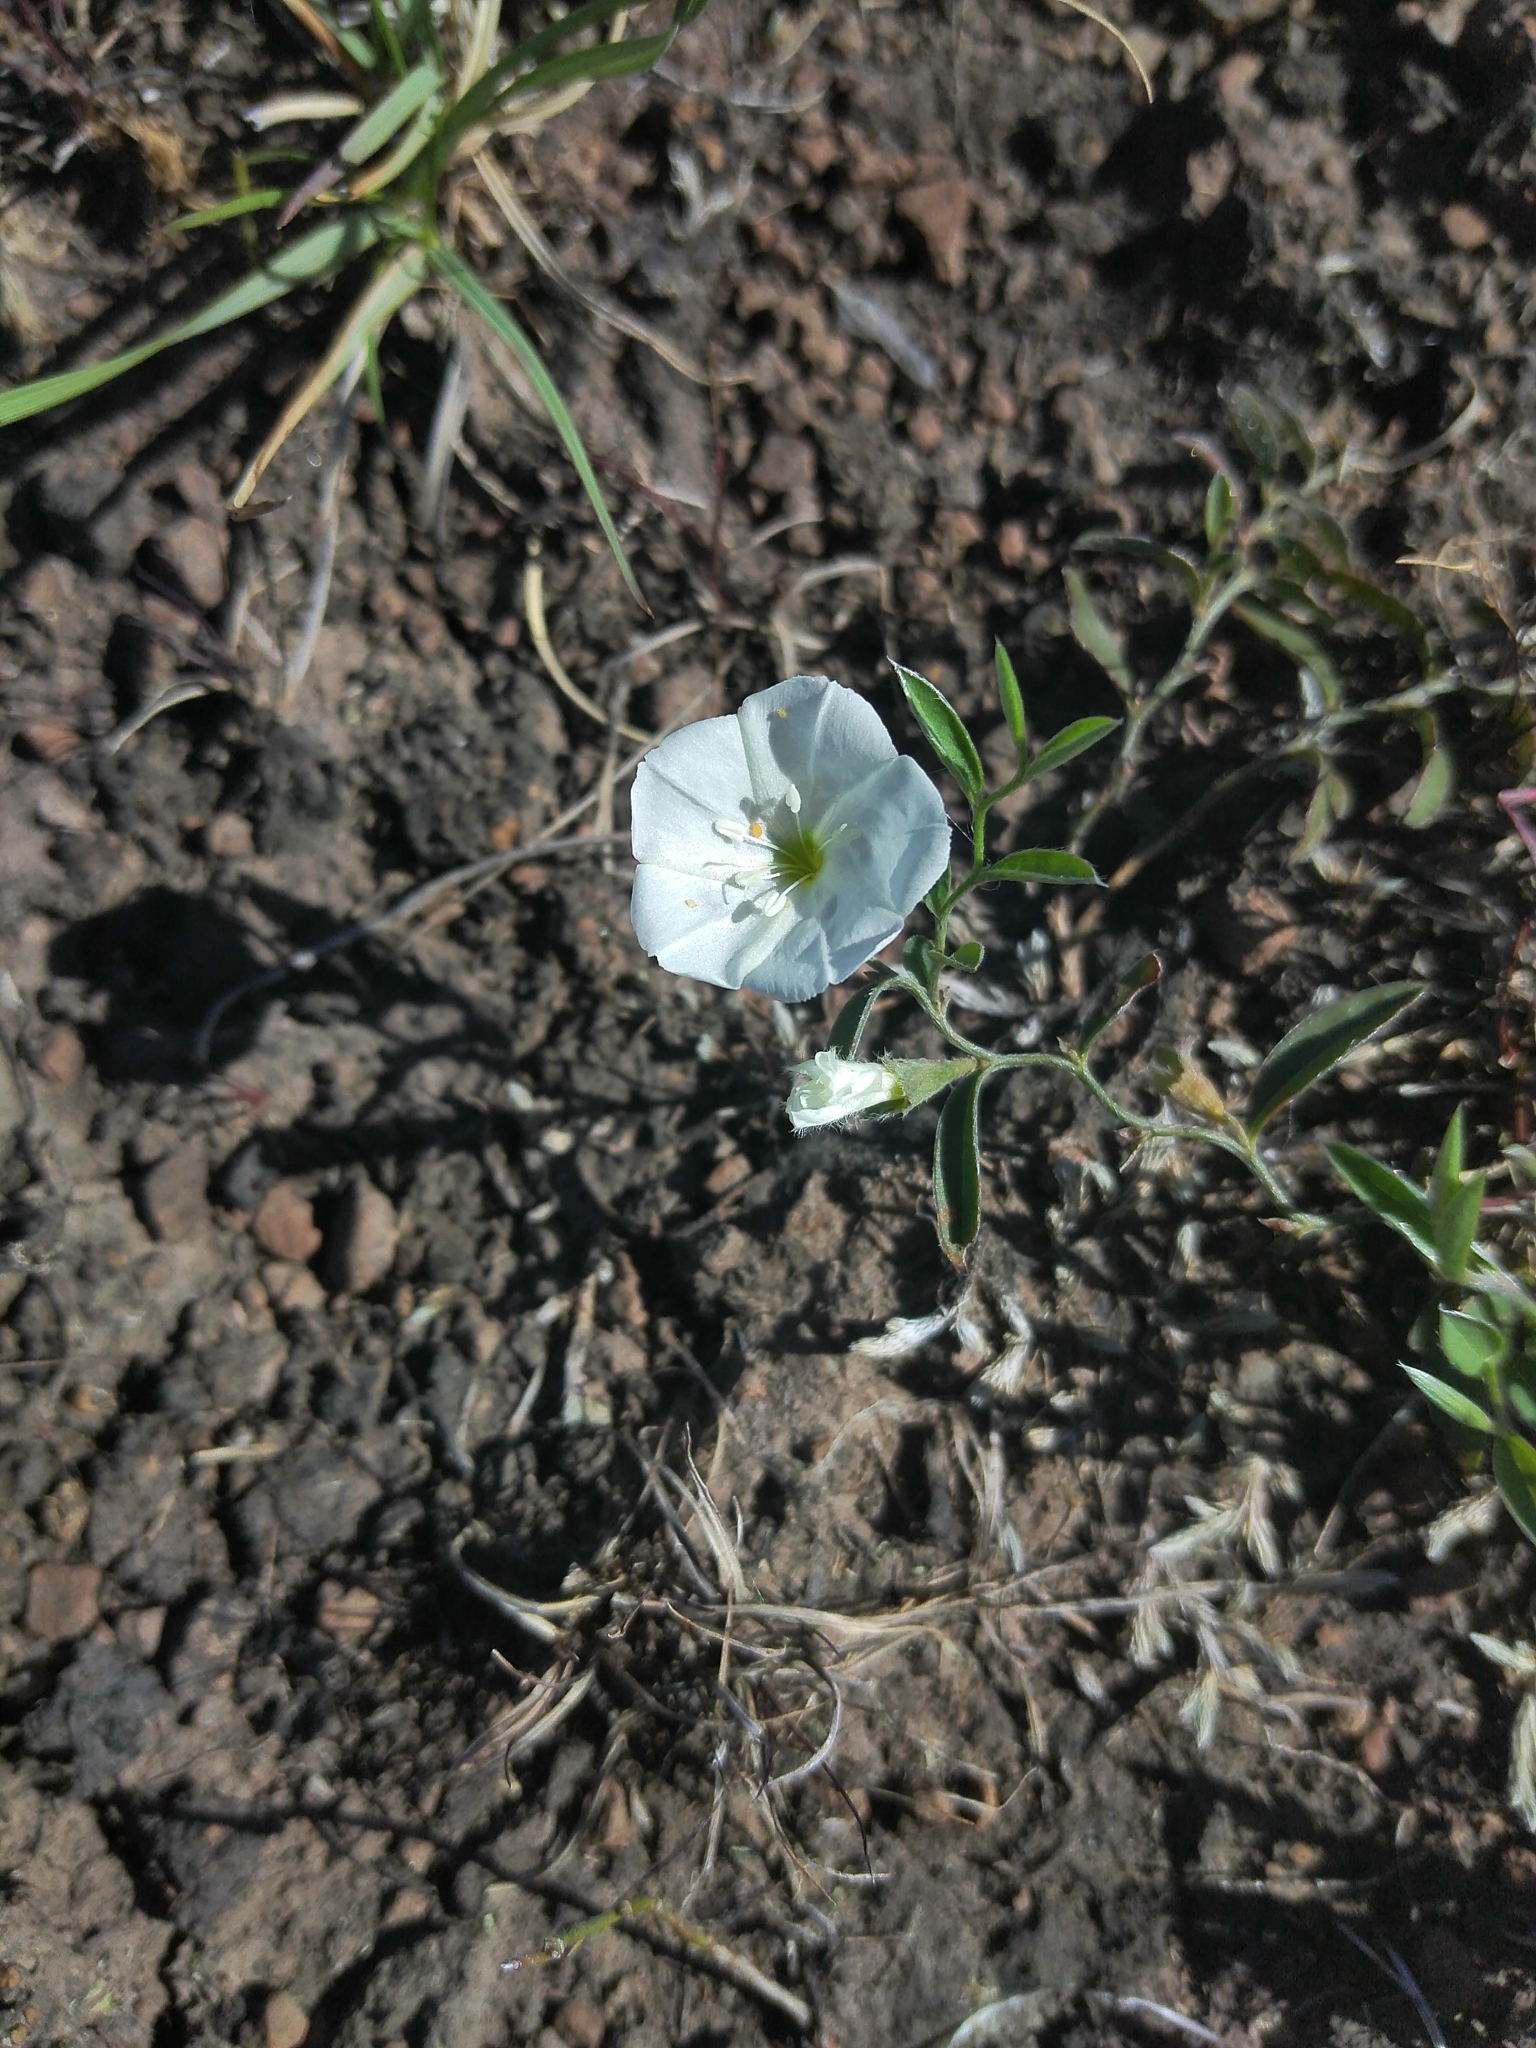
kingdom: Plantae
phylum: Tracheophyta
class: Magnoliopsida
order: Solanales
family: Convolvulaceae
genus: Evolvulus
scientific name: Evolvulus sericeus
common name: Blue dots
